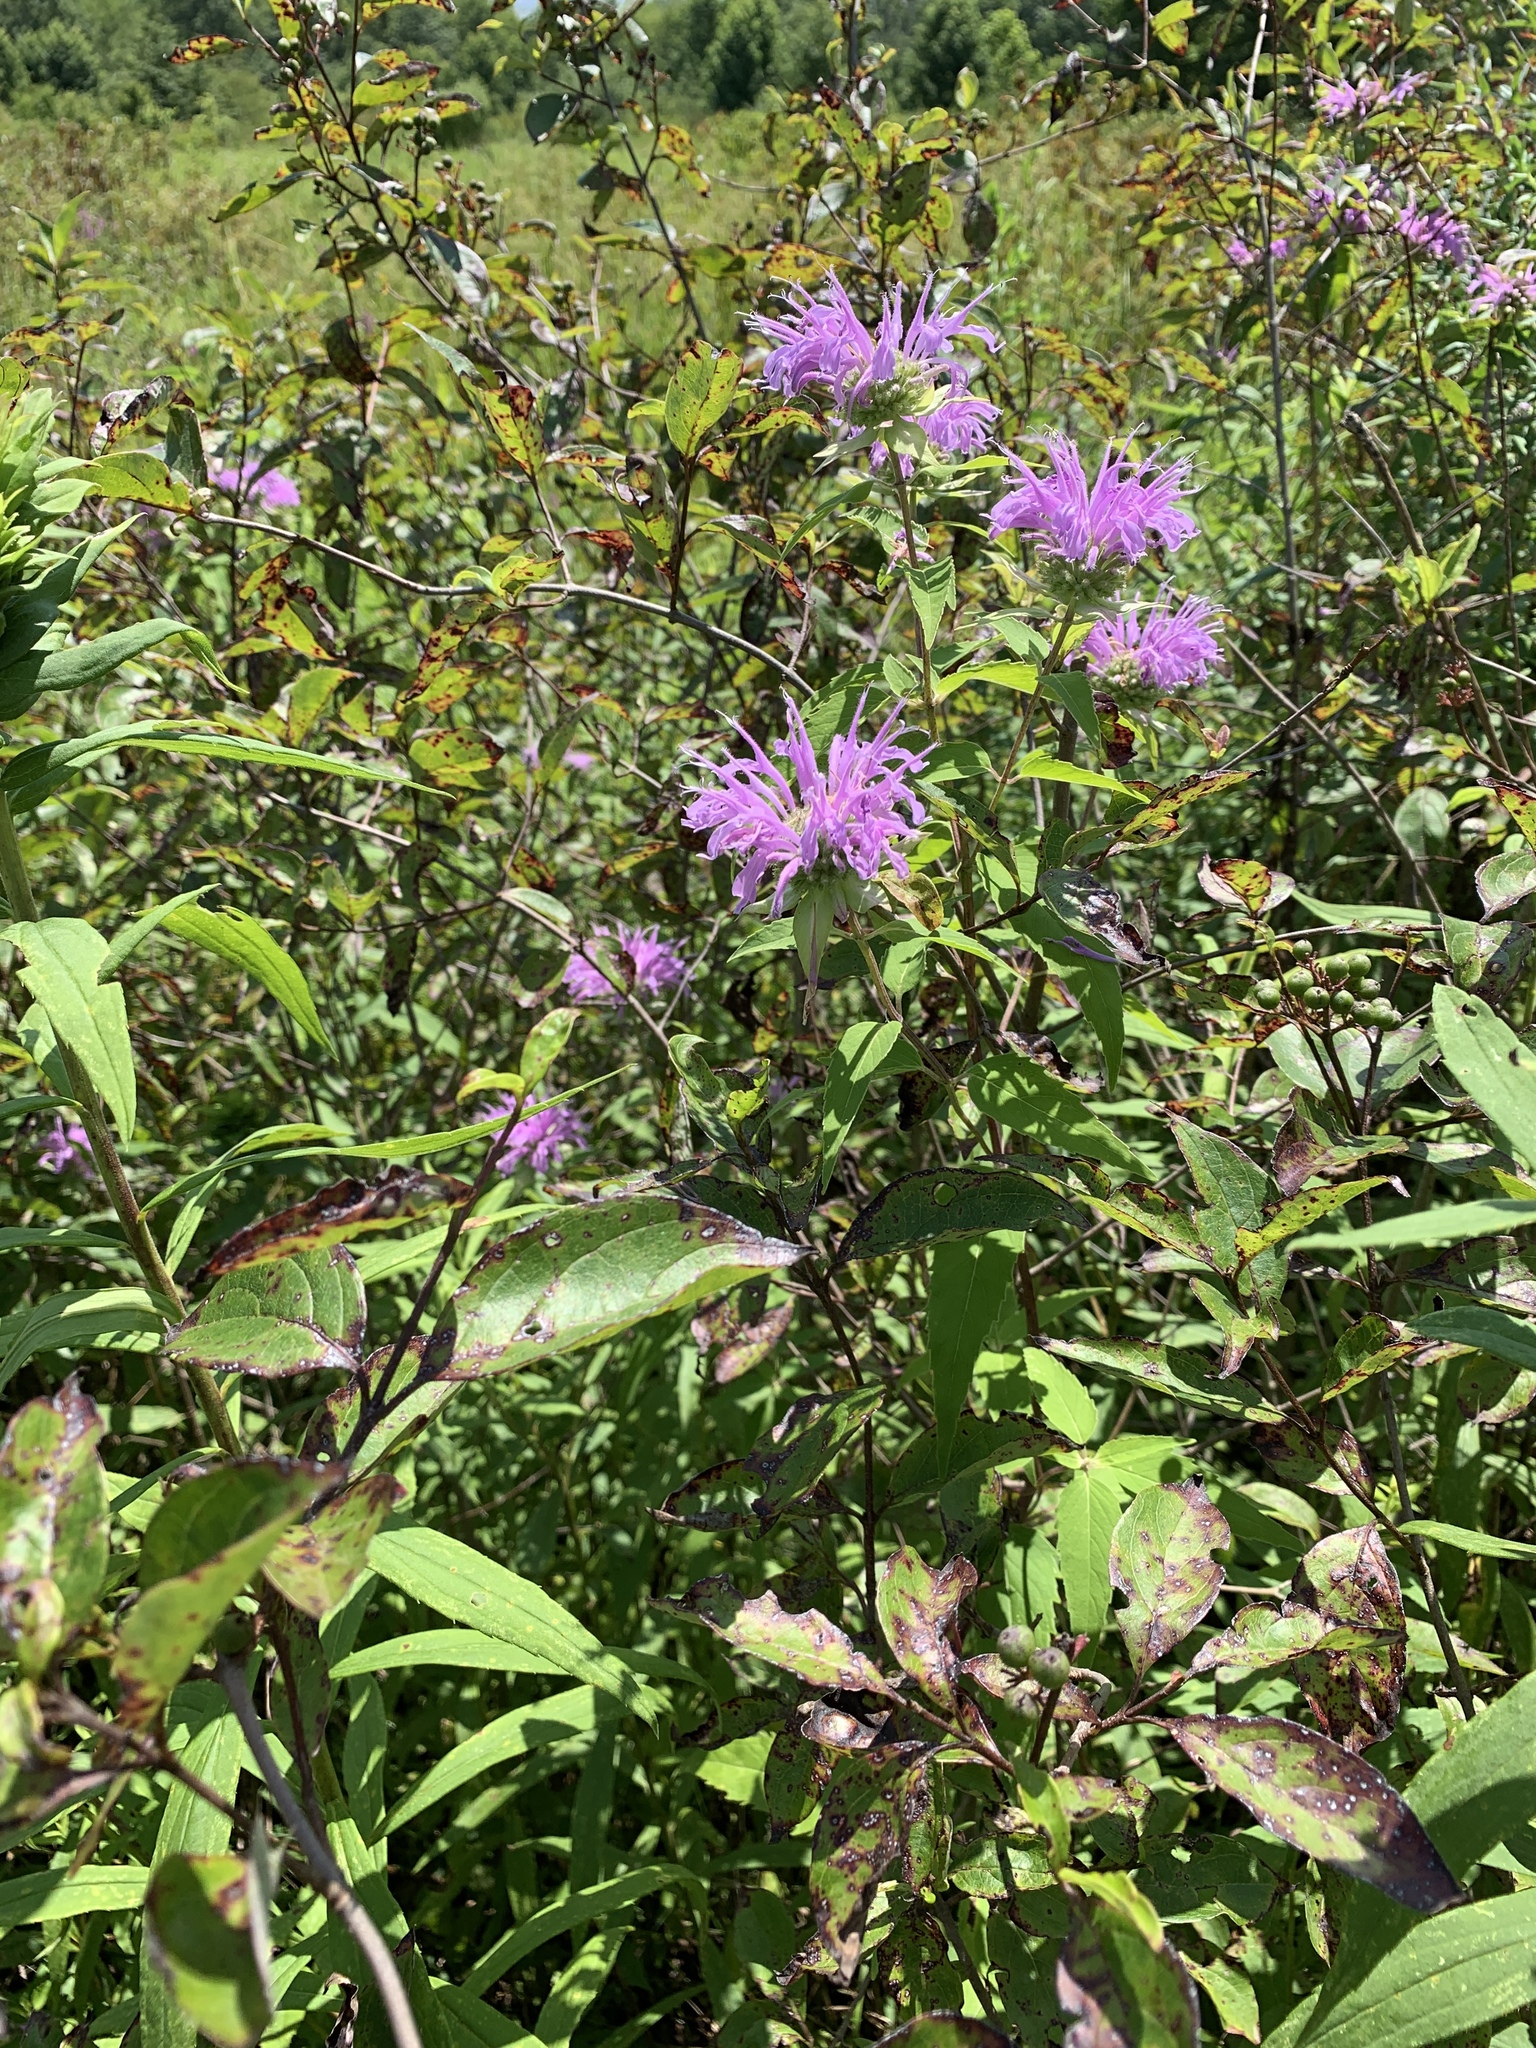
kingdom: Plantae
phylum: Tracheophyta
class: Magnoliopsida
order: Lamiales
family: Lamiaceae
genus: Monarda
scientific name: Monarda fistulosa
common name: Purple beebalm
